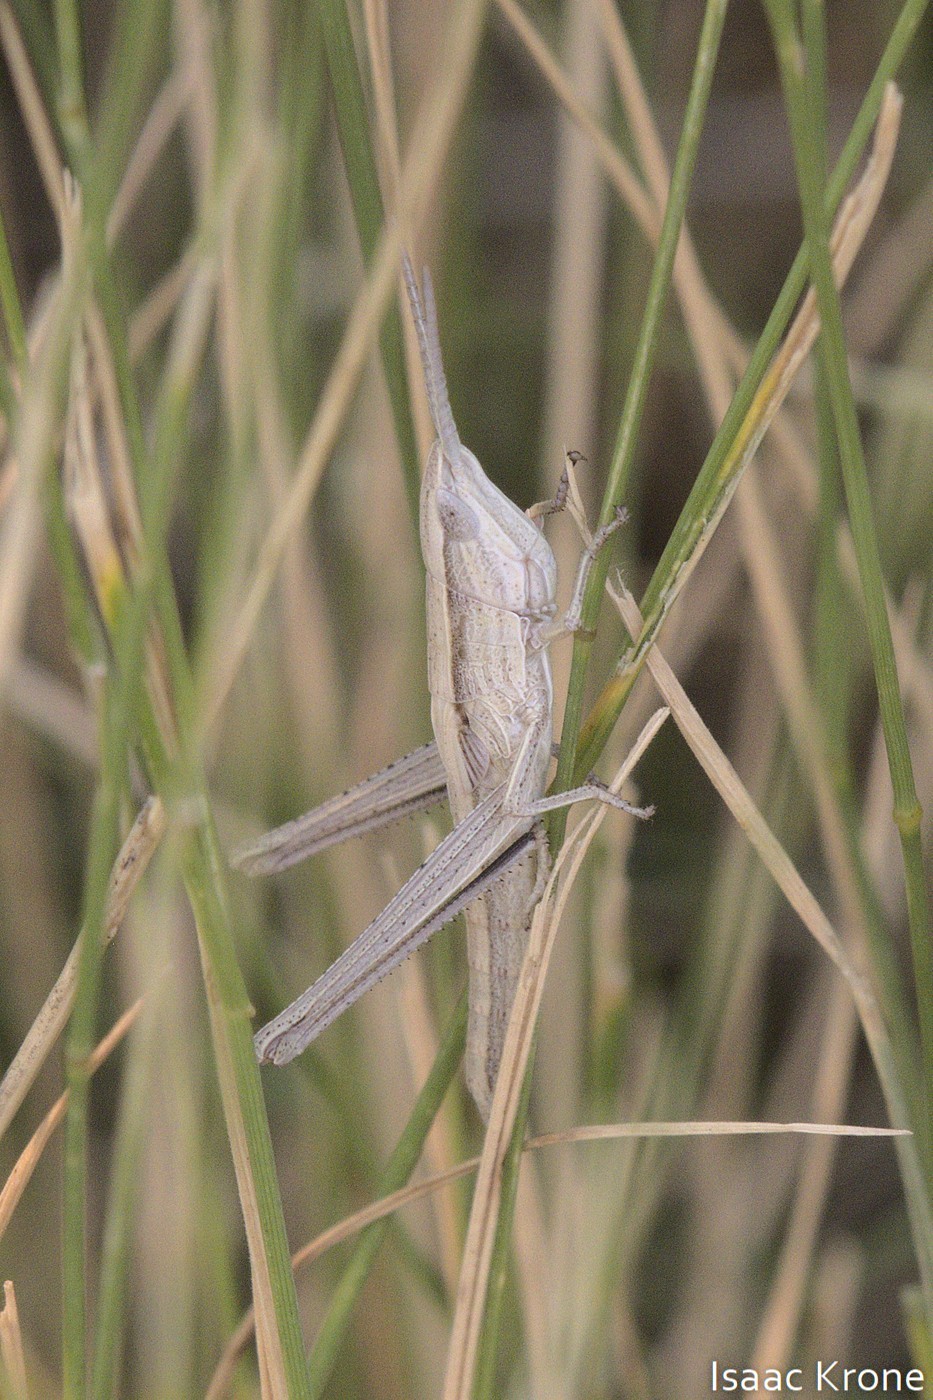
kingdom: Animalia
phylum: Arthropoda
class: Insecta
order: Orthoptera
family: Acrididae
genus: Pseudopomala
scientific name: Pseudopomala brachyptera
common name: Bunchgrass grasshopper
